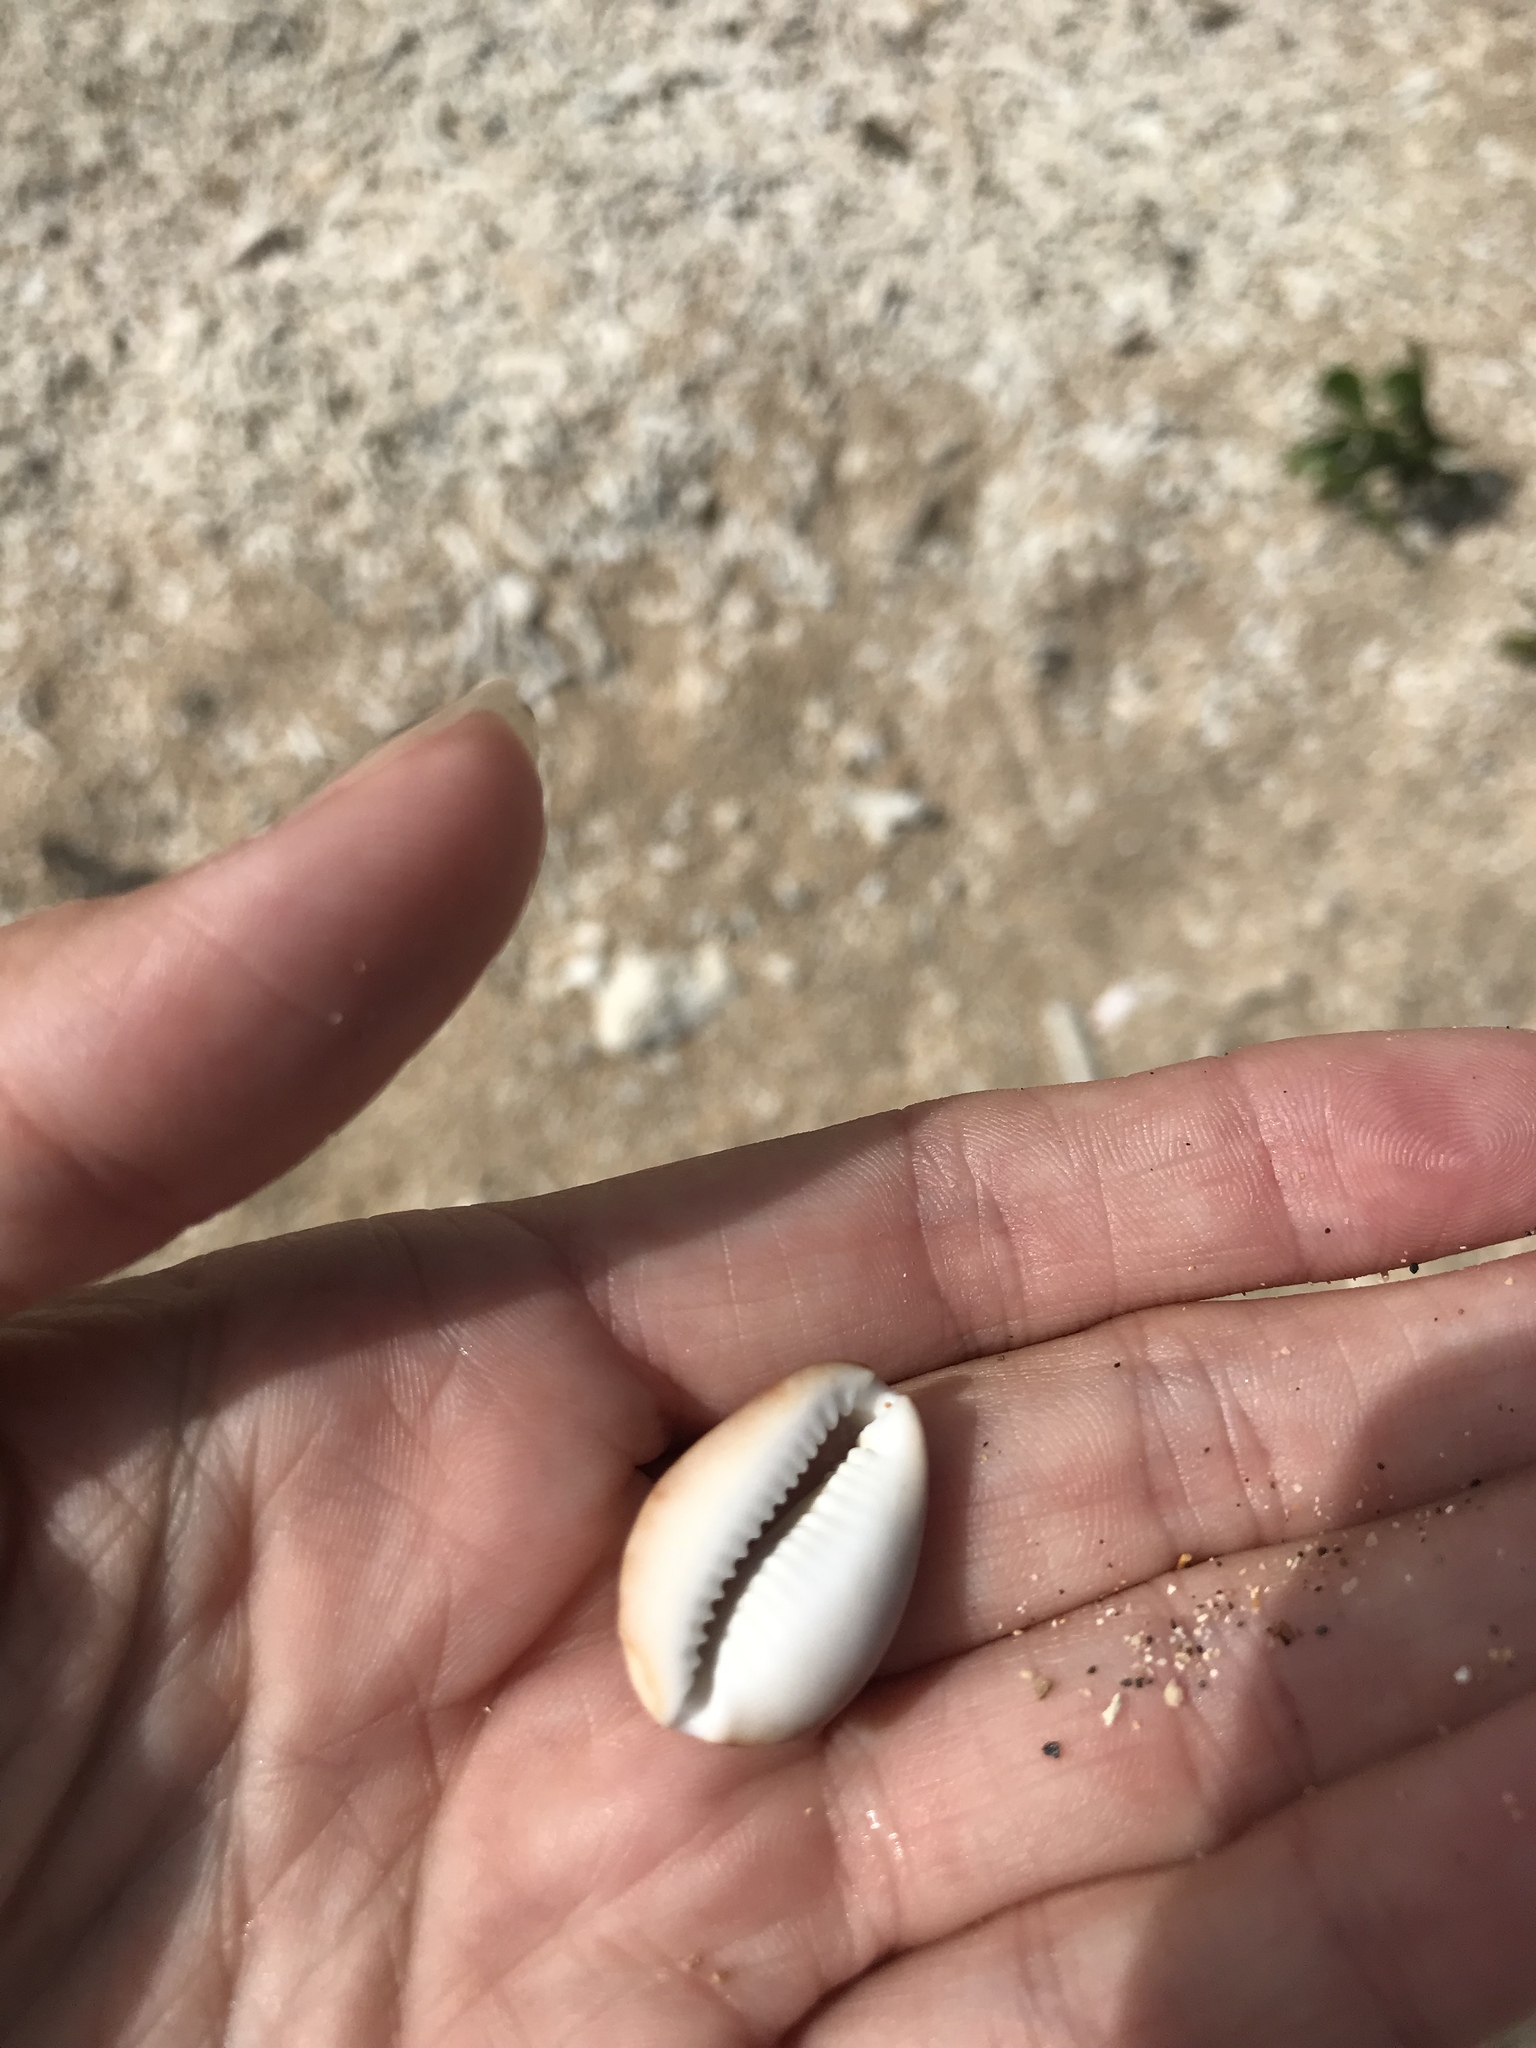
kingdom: Animalia
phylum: Mollusca
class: Gastropoda
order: Littorinimorpha
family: Cypraeidae
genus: Monetaria
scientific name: Monetaria caputserpentis
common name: Serpent's head cowrie
